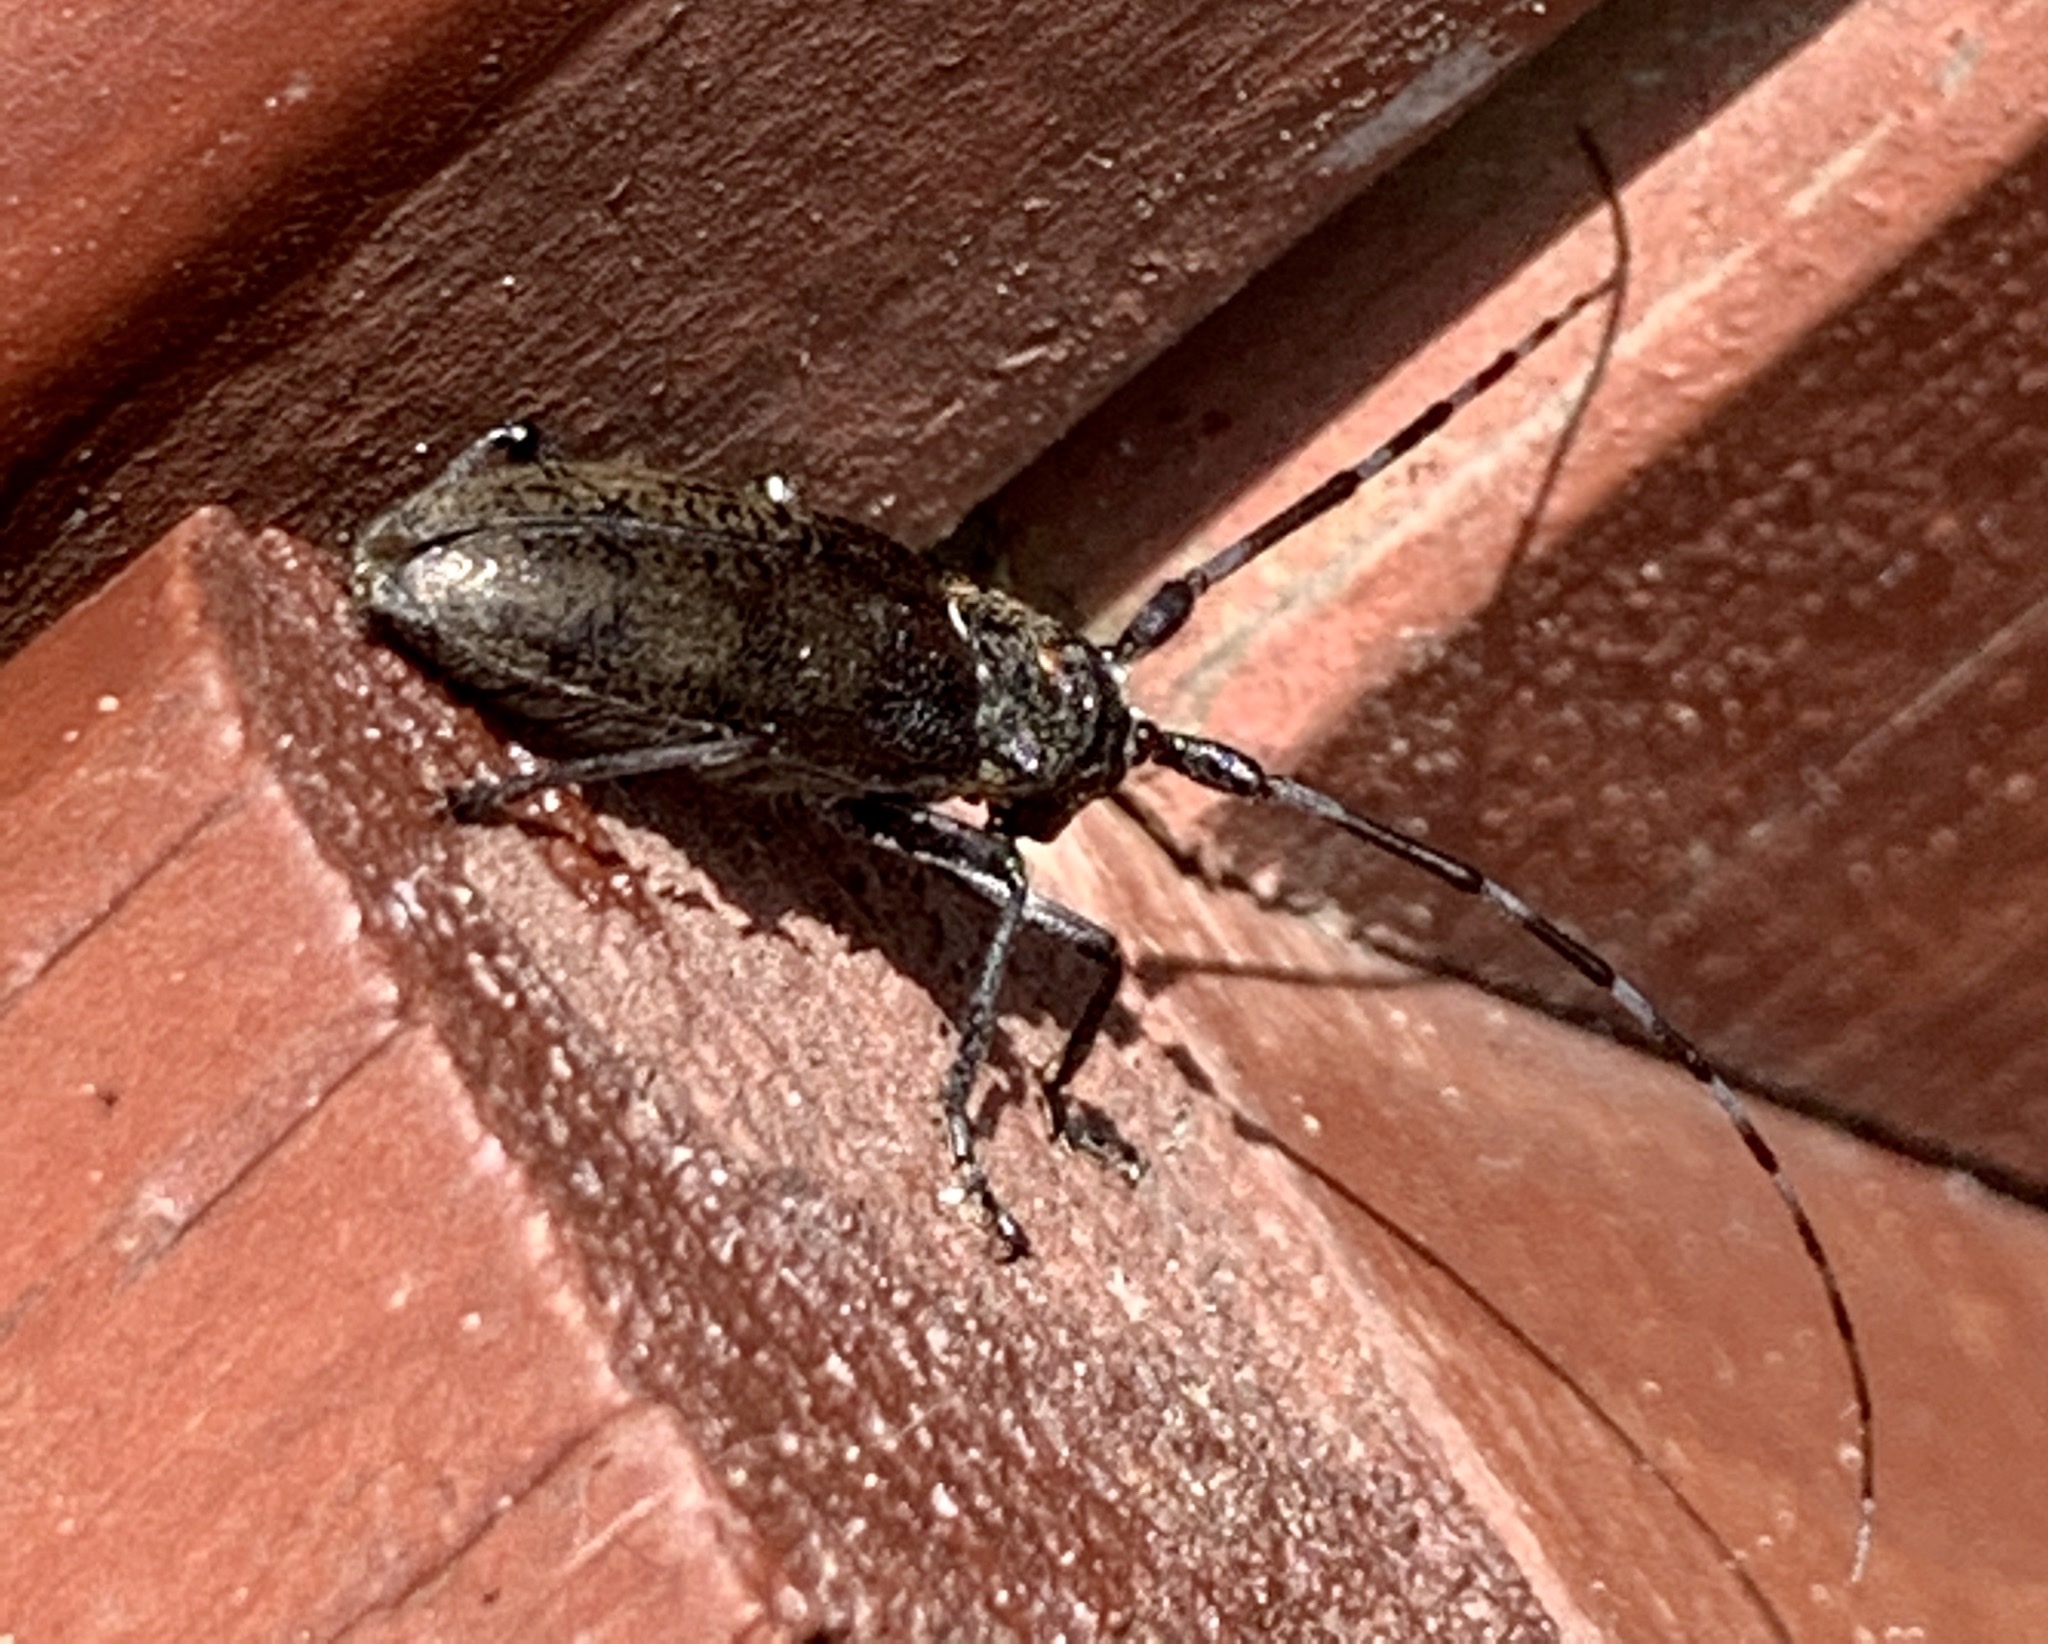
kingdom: Animalia
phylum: Arthropoda
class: Insecta
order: Coleoptera
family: Cerambycidae
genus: Monochamus
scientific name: Monochamus scutellatus
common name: White-spotted sawyer beetle
